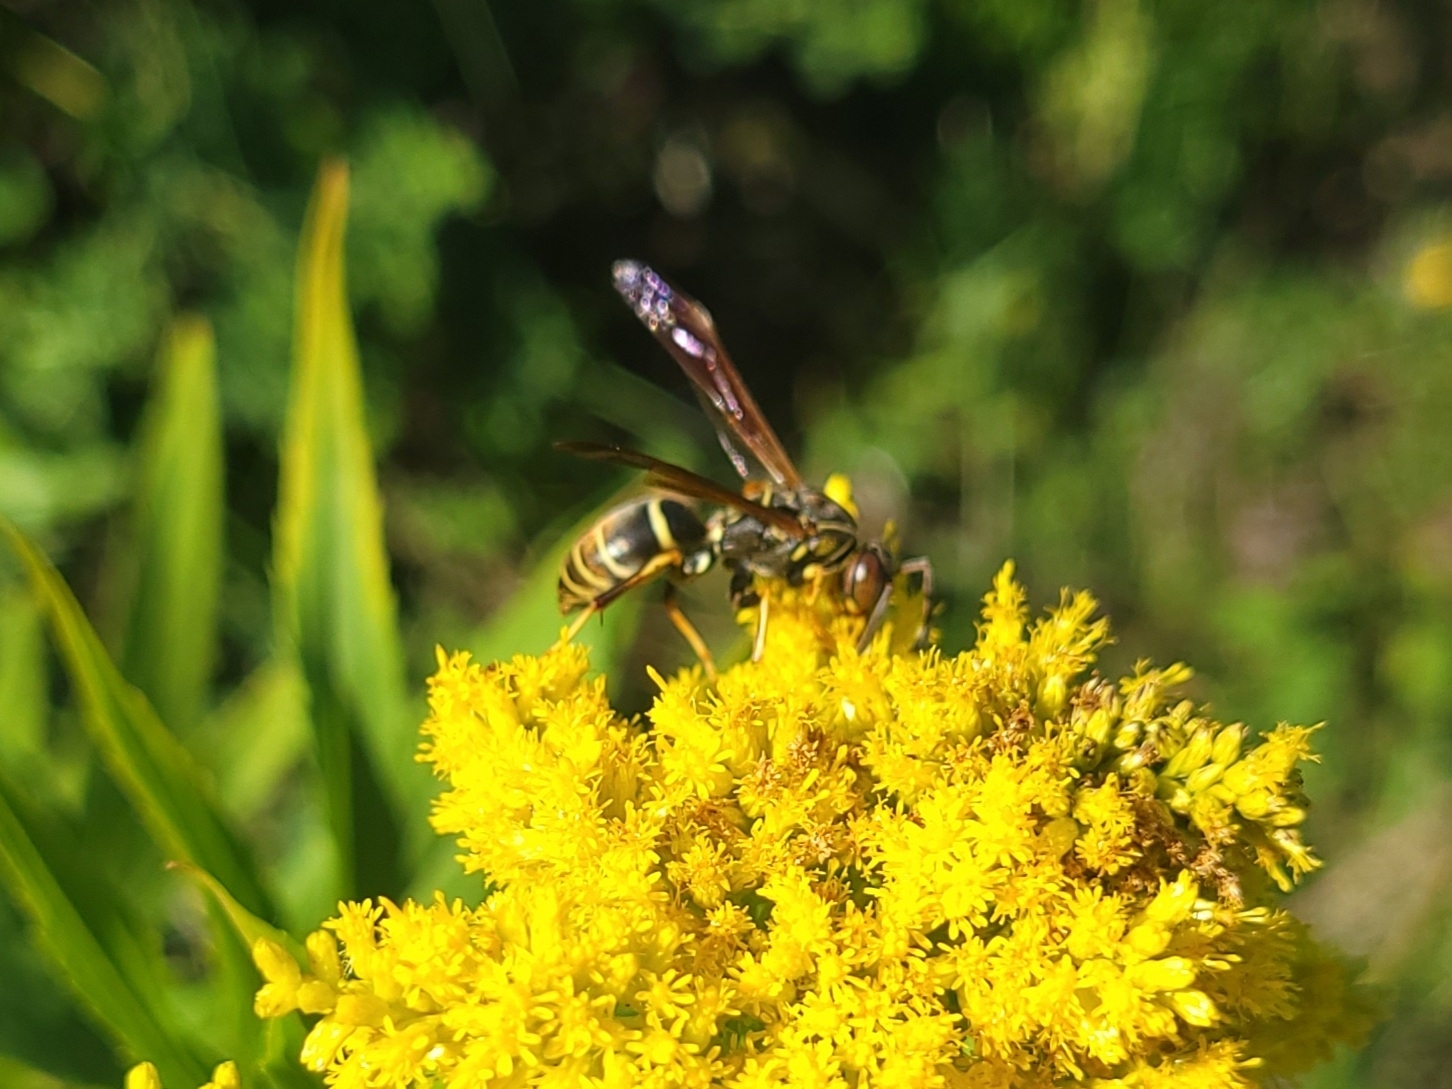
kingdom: Animalia
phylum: Arthropoda
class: Insecta
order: Hymenoptera
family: Eumenidae
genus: Polistes
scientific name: Polistes fuscatus
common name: Dark paper wasp
